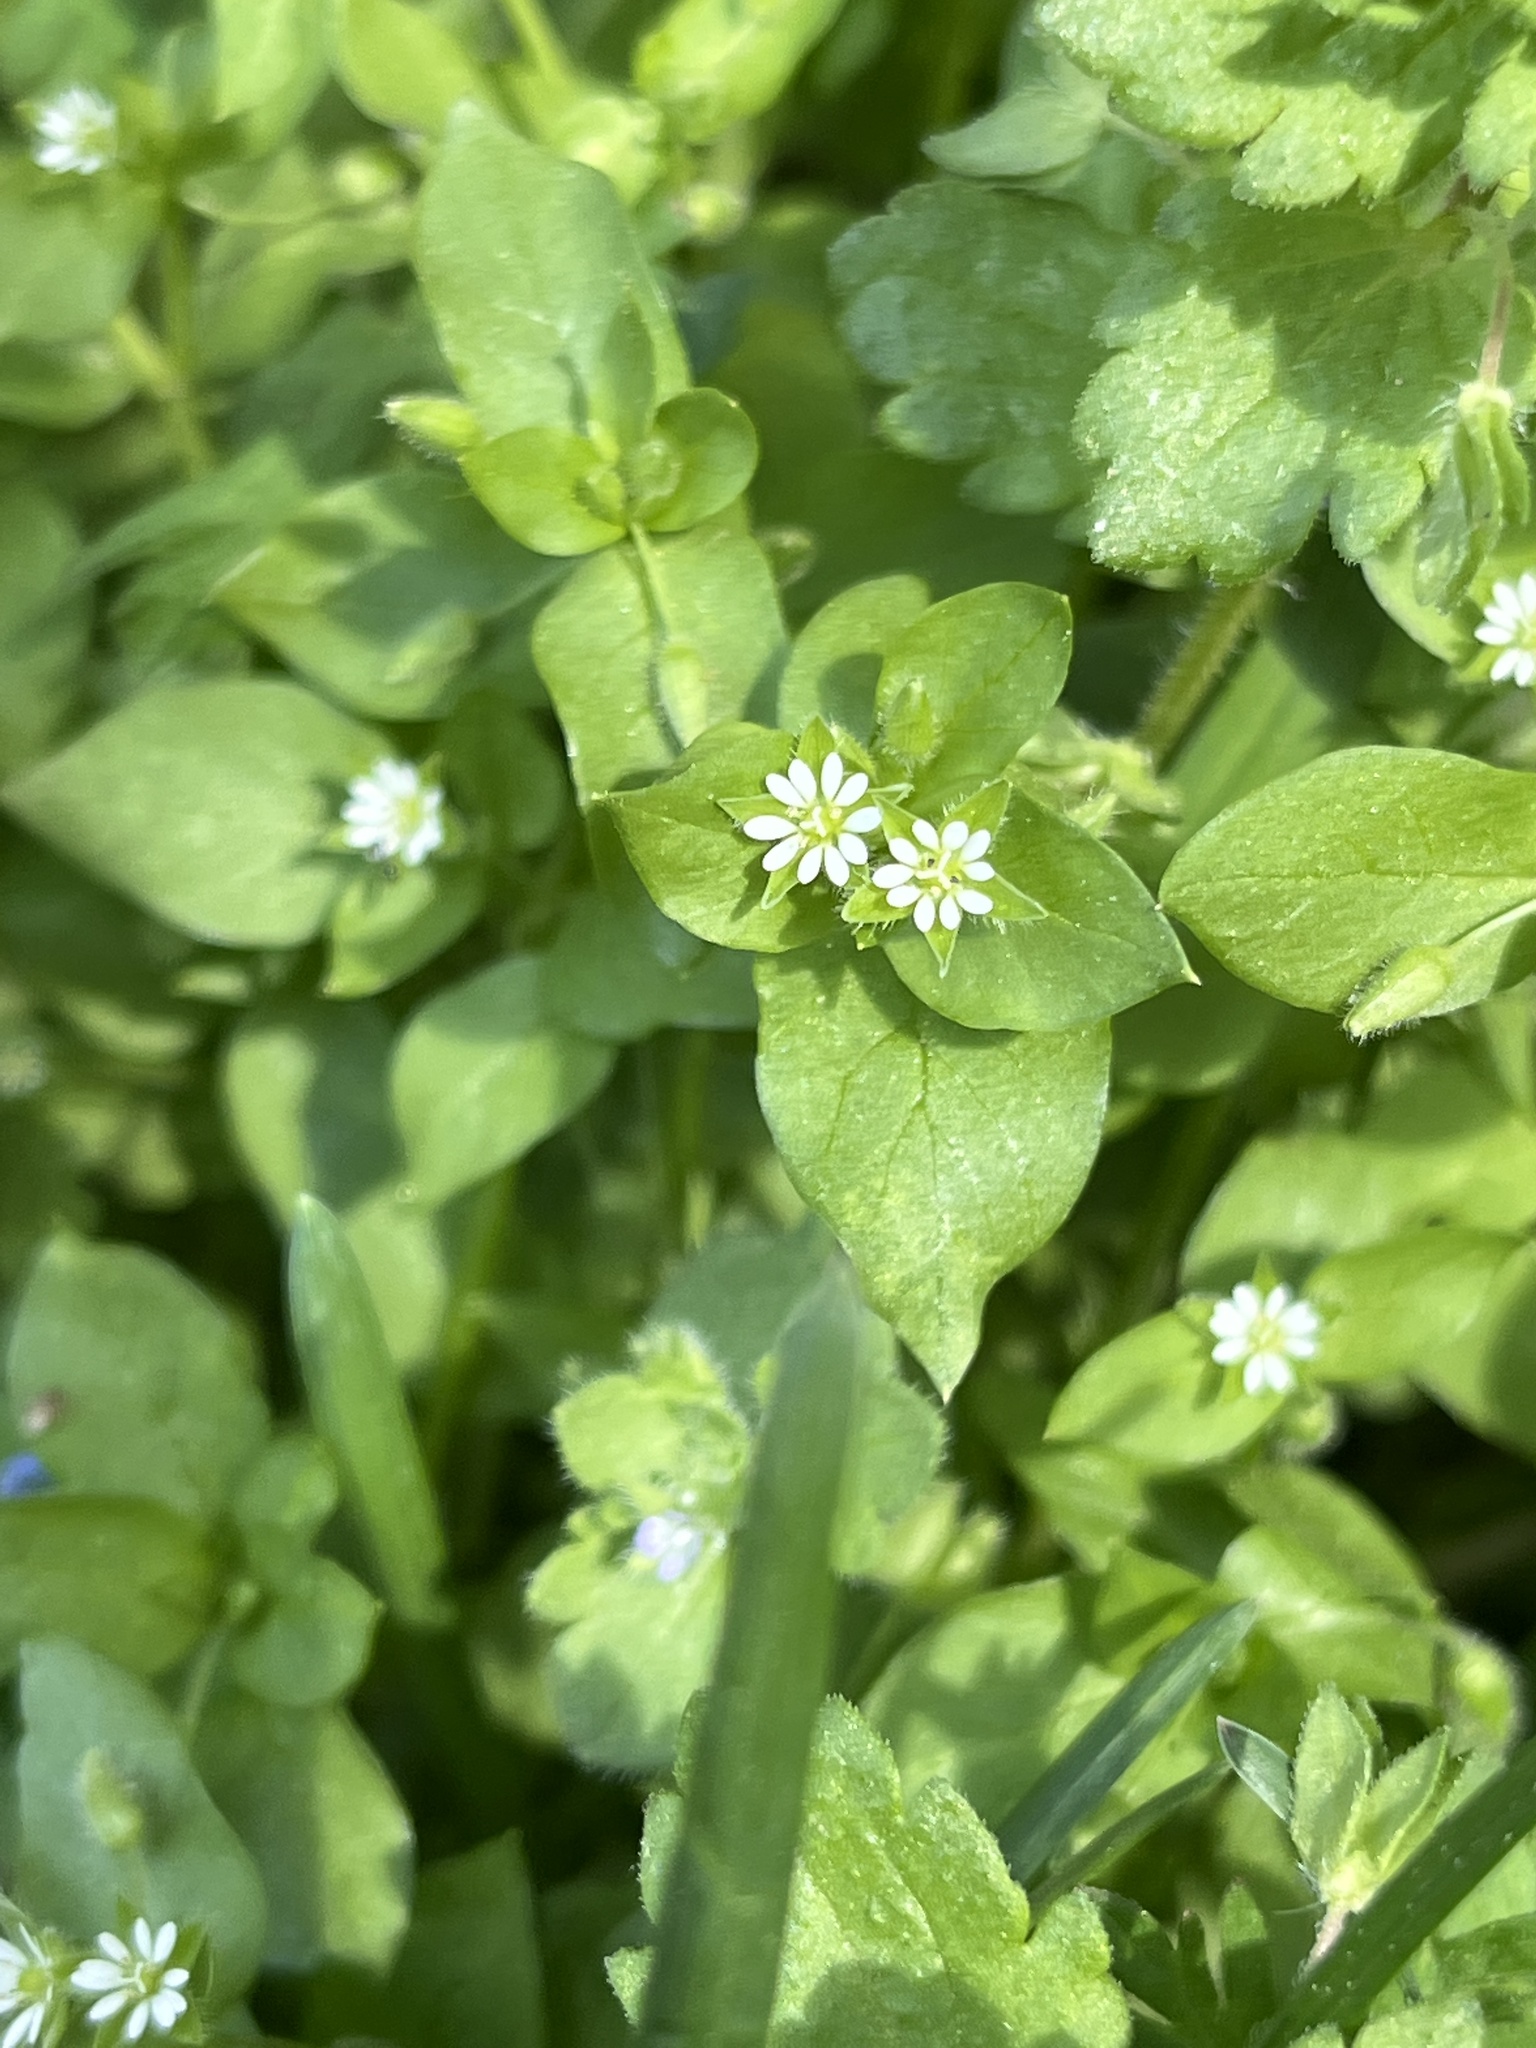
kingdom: Plantae
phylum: Tracheophyta
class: Magnoliopsida
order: Caryophyllales
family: Caryophyllaceae
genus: Stellaria
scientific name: Stellaria media
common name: Common chickweed
